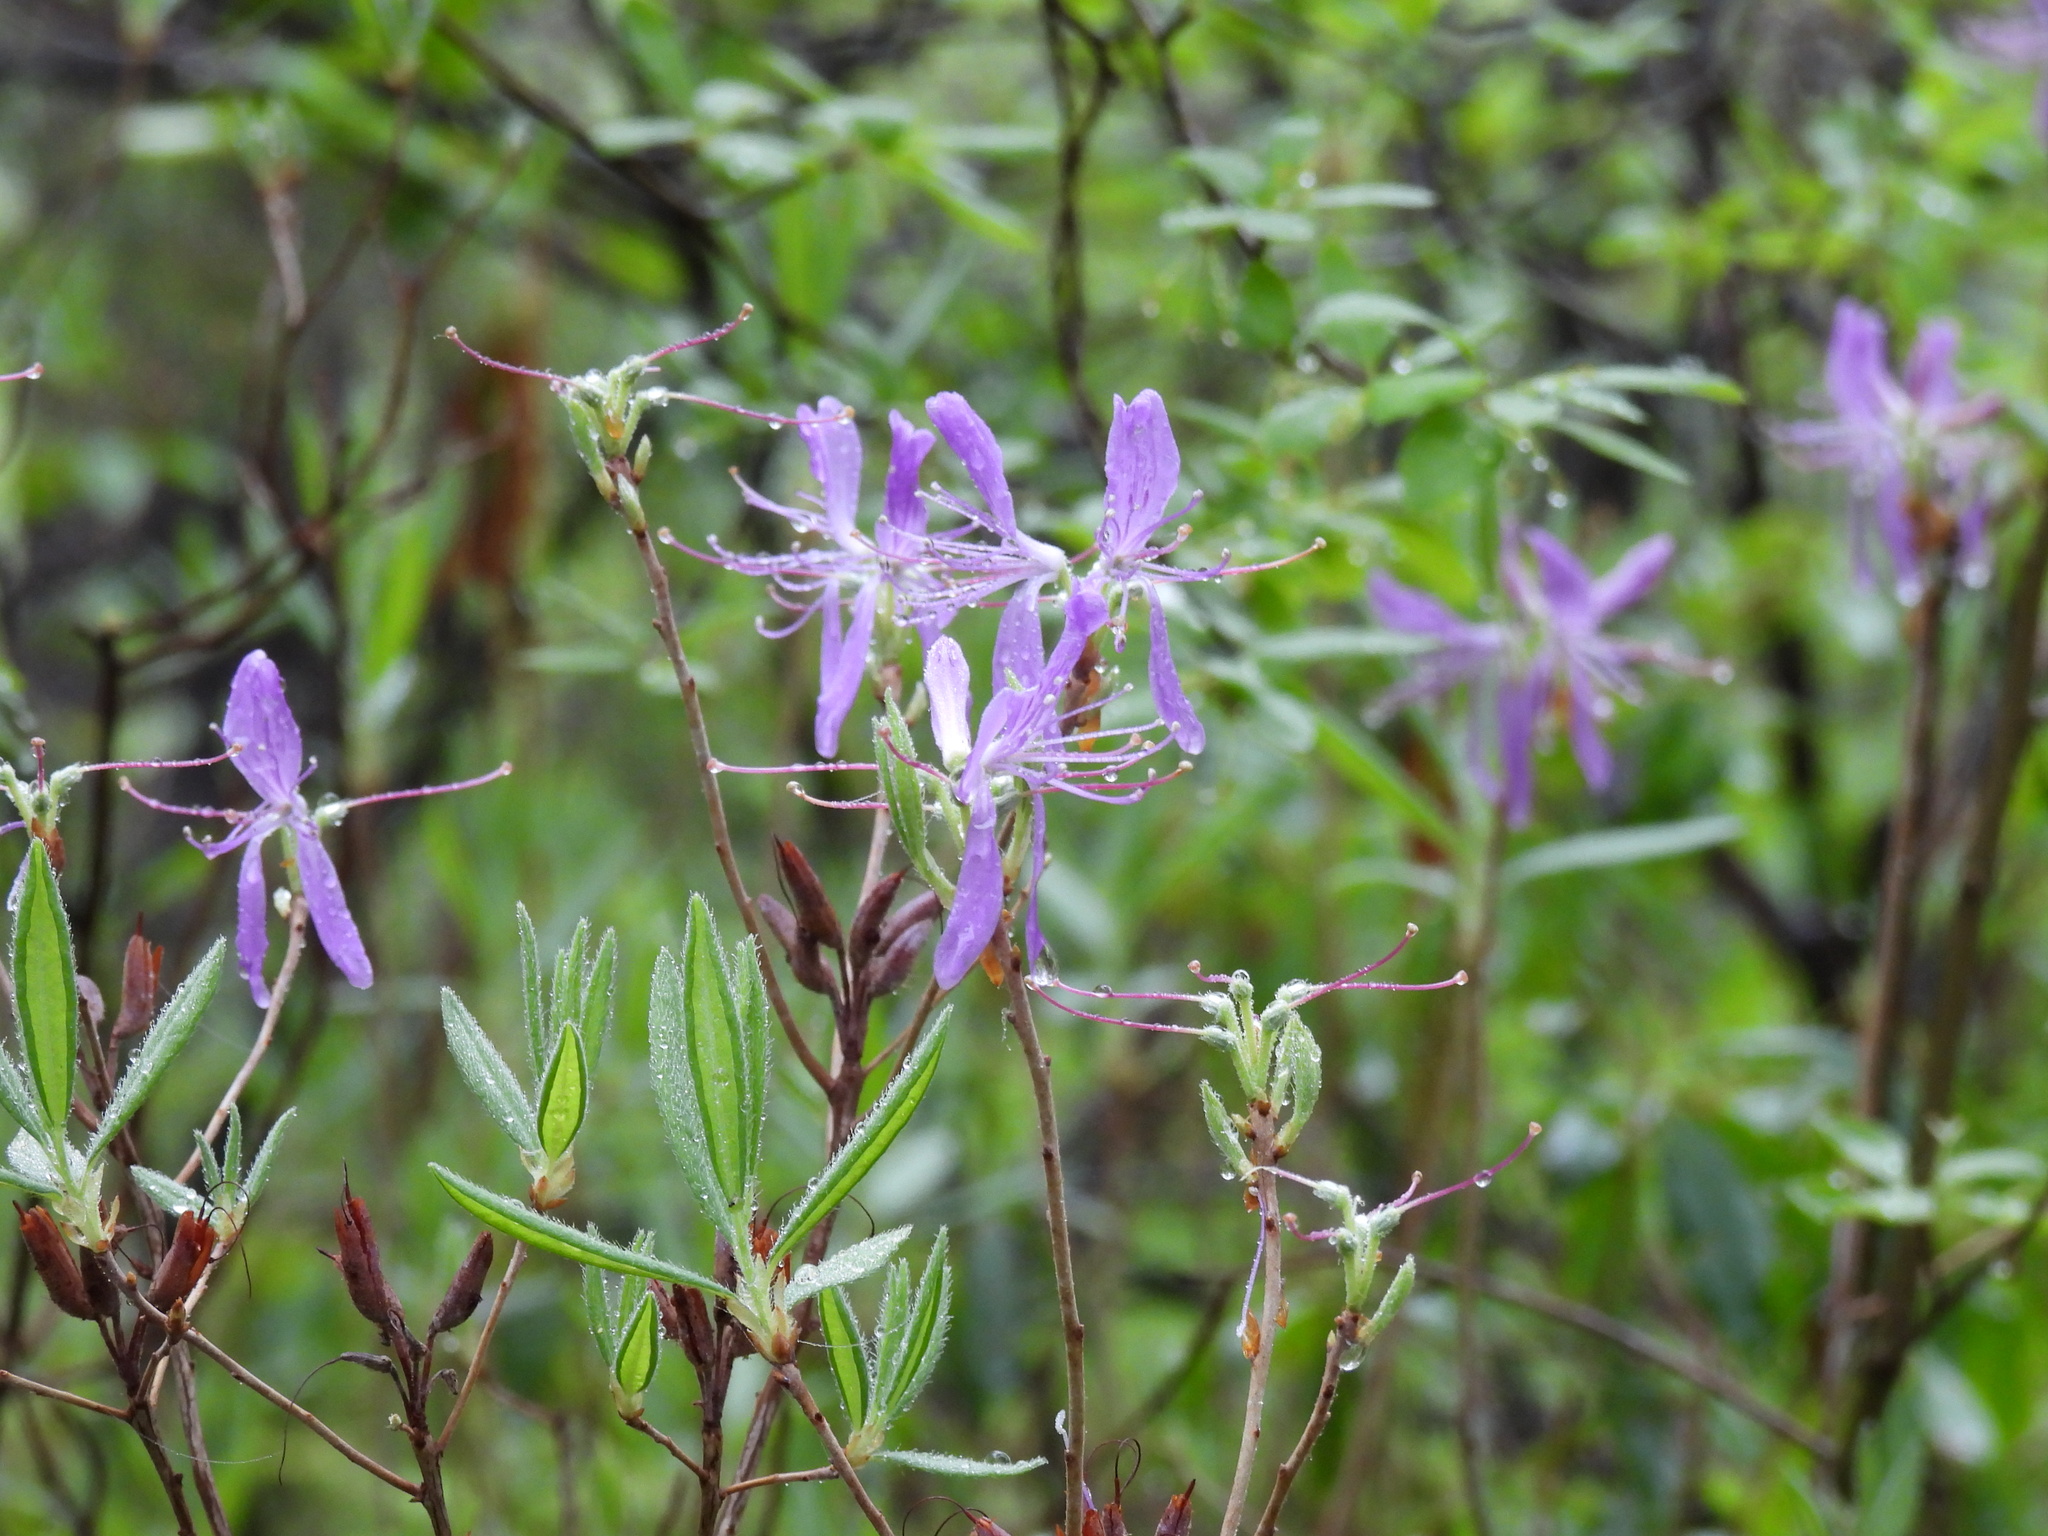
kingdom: Plantae
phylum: Tracheophyta
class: Magnoliopsida
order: Ericales
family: Ericaceae
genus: Rhododendron
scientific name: Rhododendron canadense
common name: Rhodora
